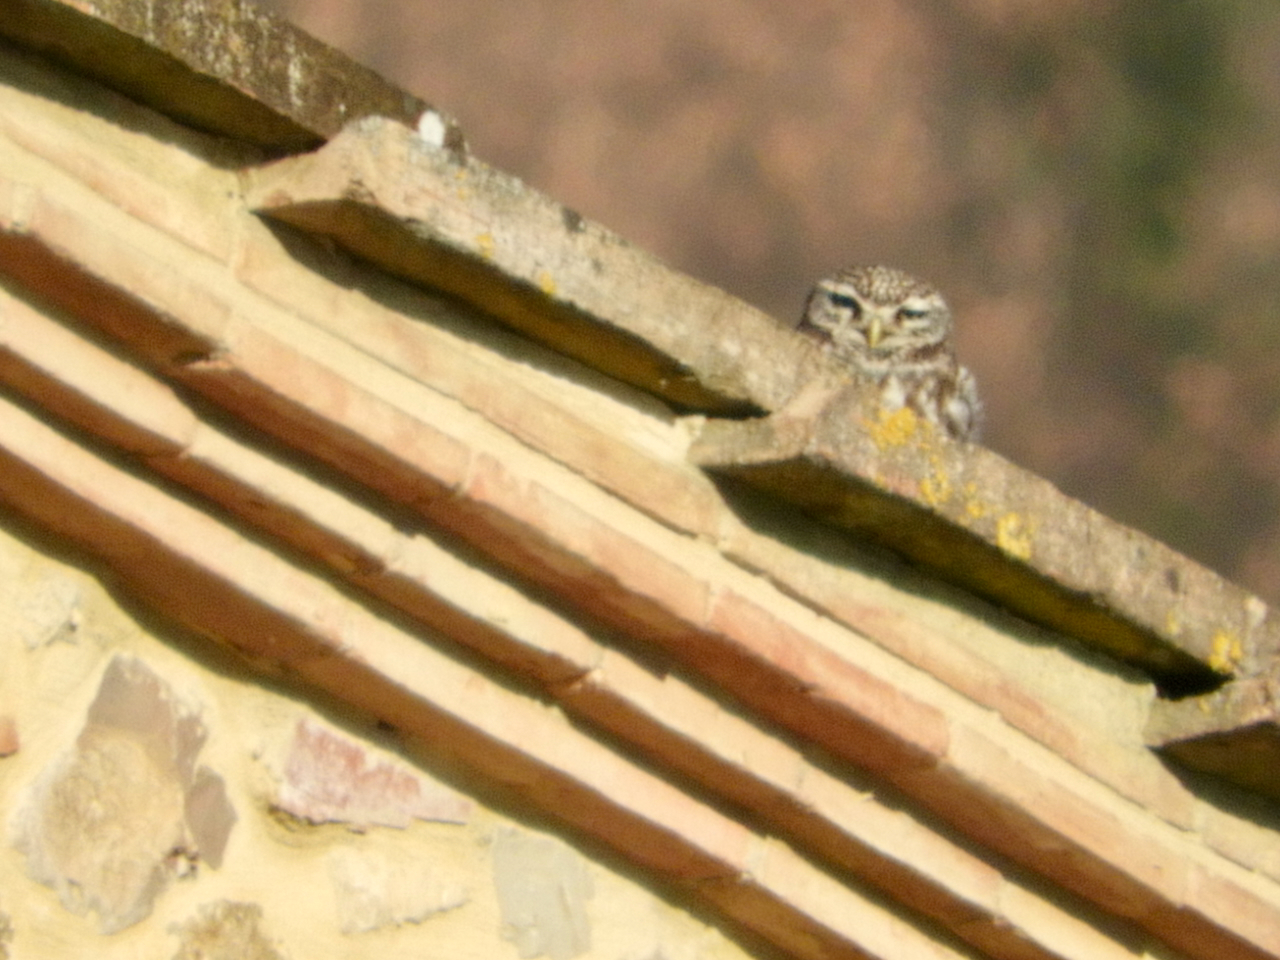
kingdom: Animalia
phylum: Chordata
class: Aves
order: Strigiformes
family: Strigidae
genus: Athene
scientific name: Athene noctua
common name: Little owl
